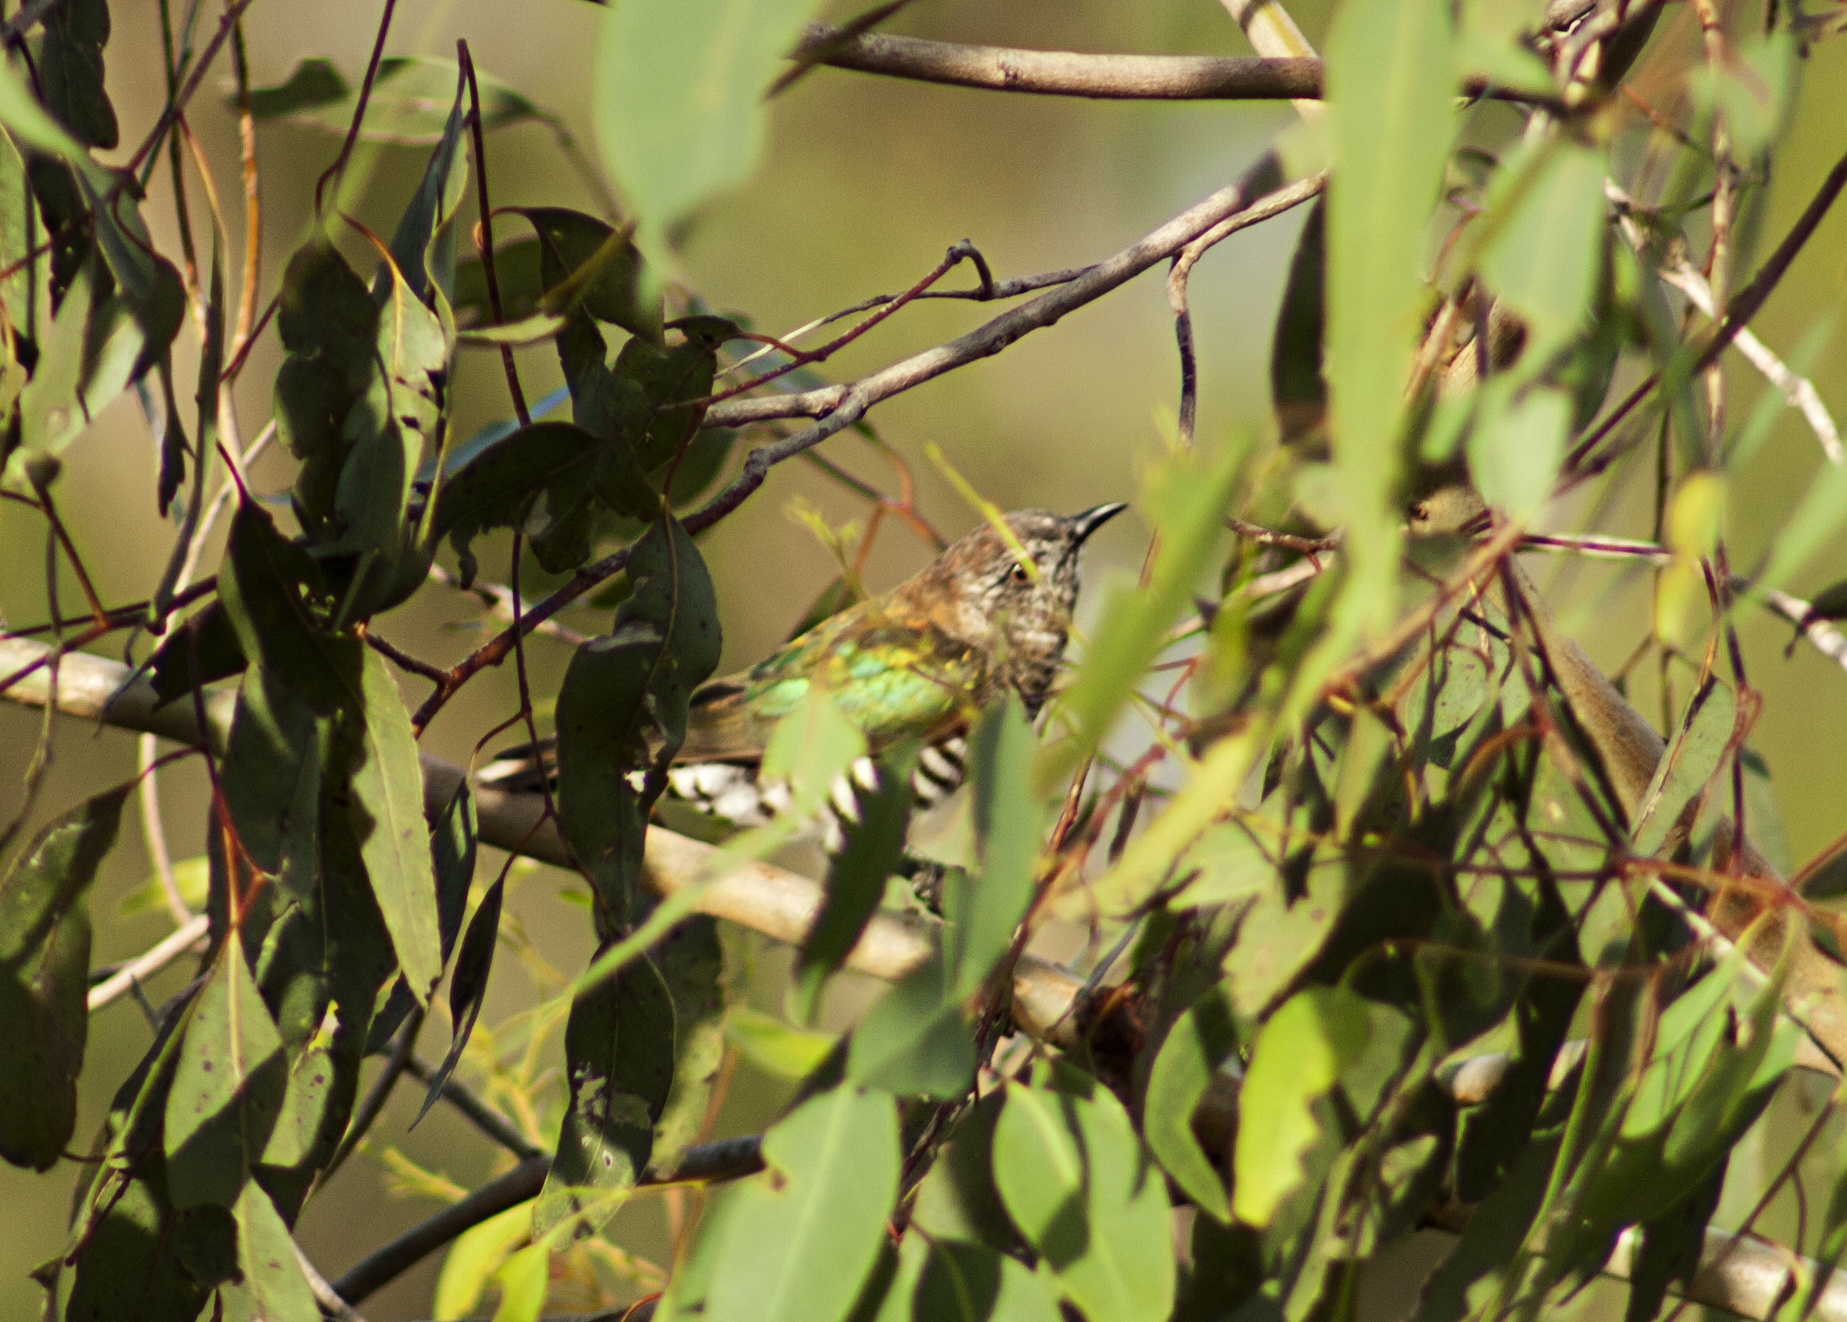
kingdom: Animalia
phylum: Chordata
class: Aves
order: Cuculiformes
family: Cuculidae
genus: Chrysococcyx
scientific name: Chrysococcyx lucidus
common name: Shining bronze cuckoo
